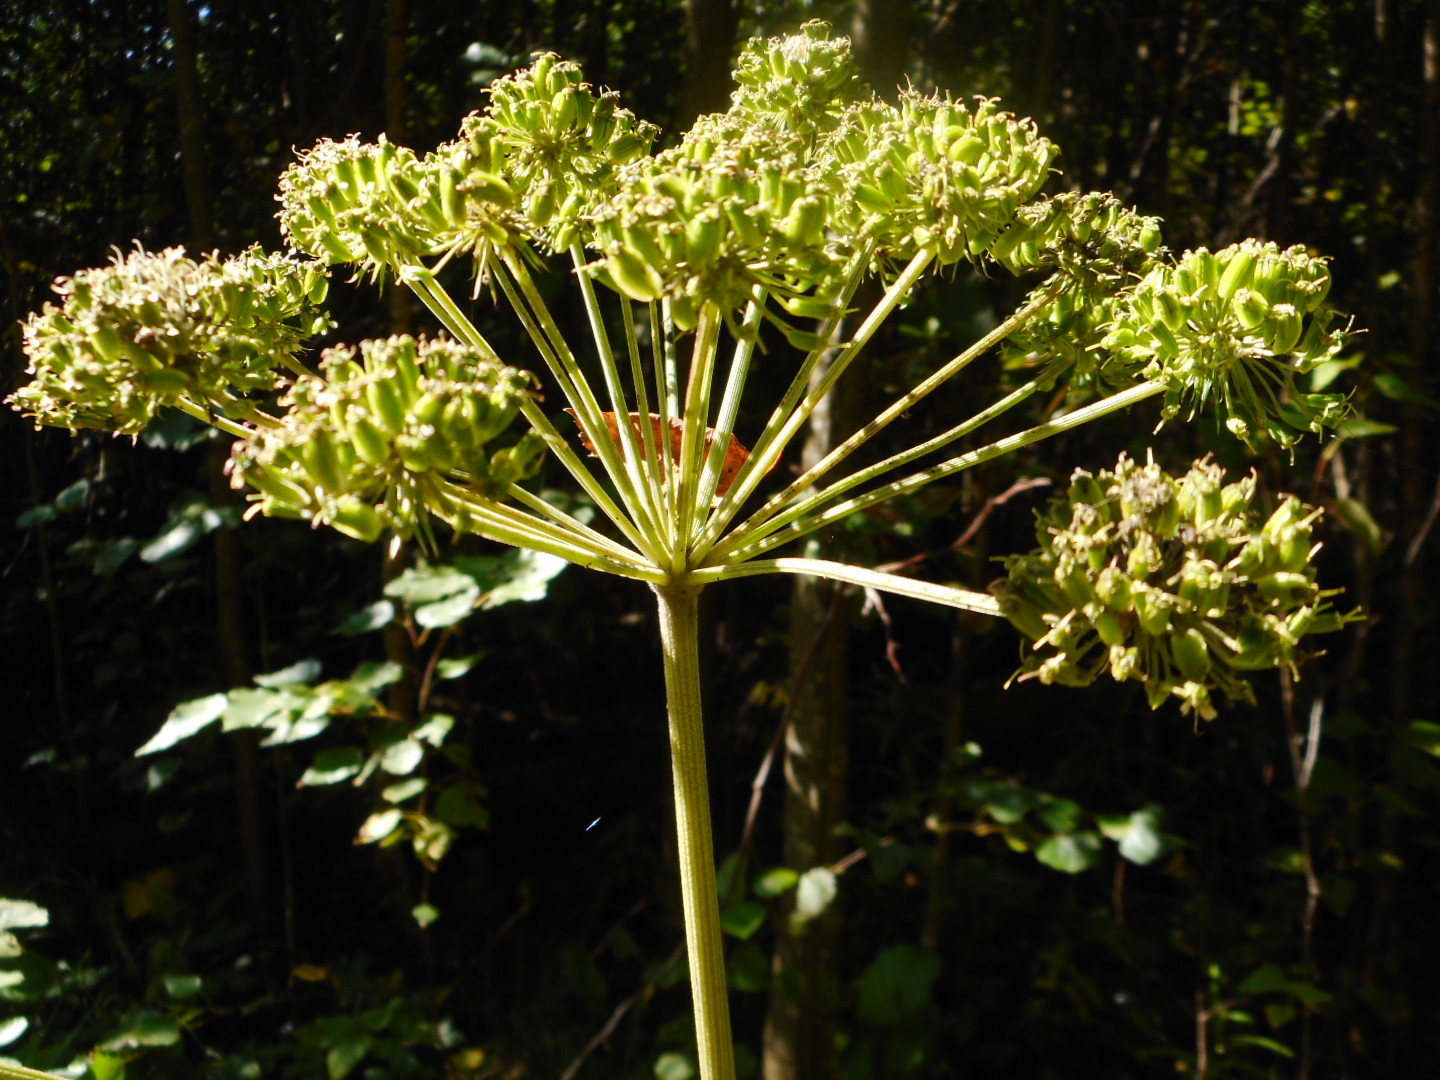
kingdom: Plantae
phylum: Tracheophyta
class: Magnoliopsida
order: Apiales
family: Apiaceae
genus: Angelica
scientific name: Angelica sylvestris
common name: Wild angelica
